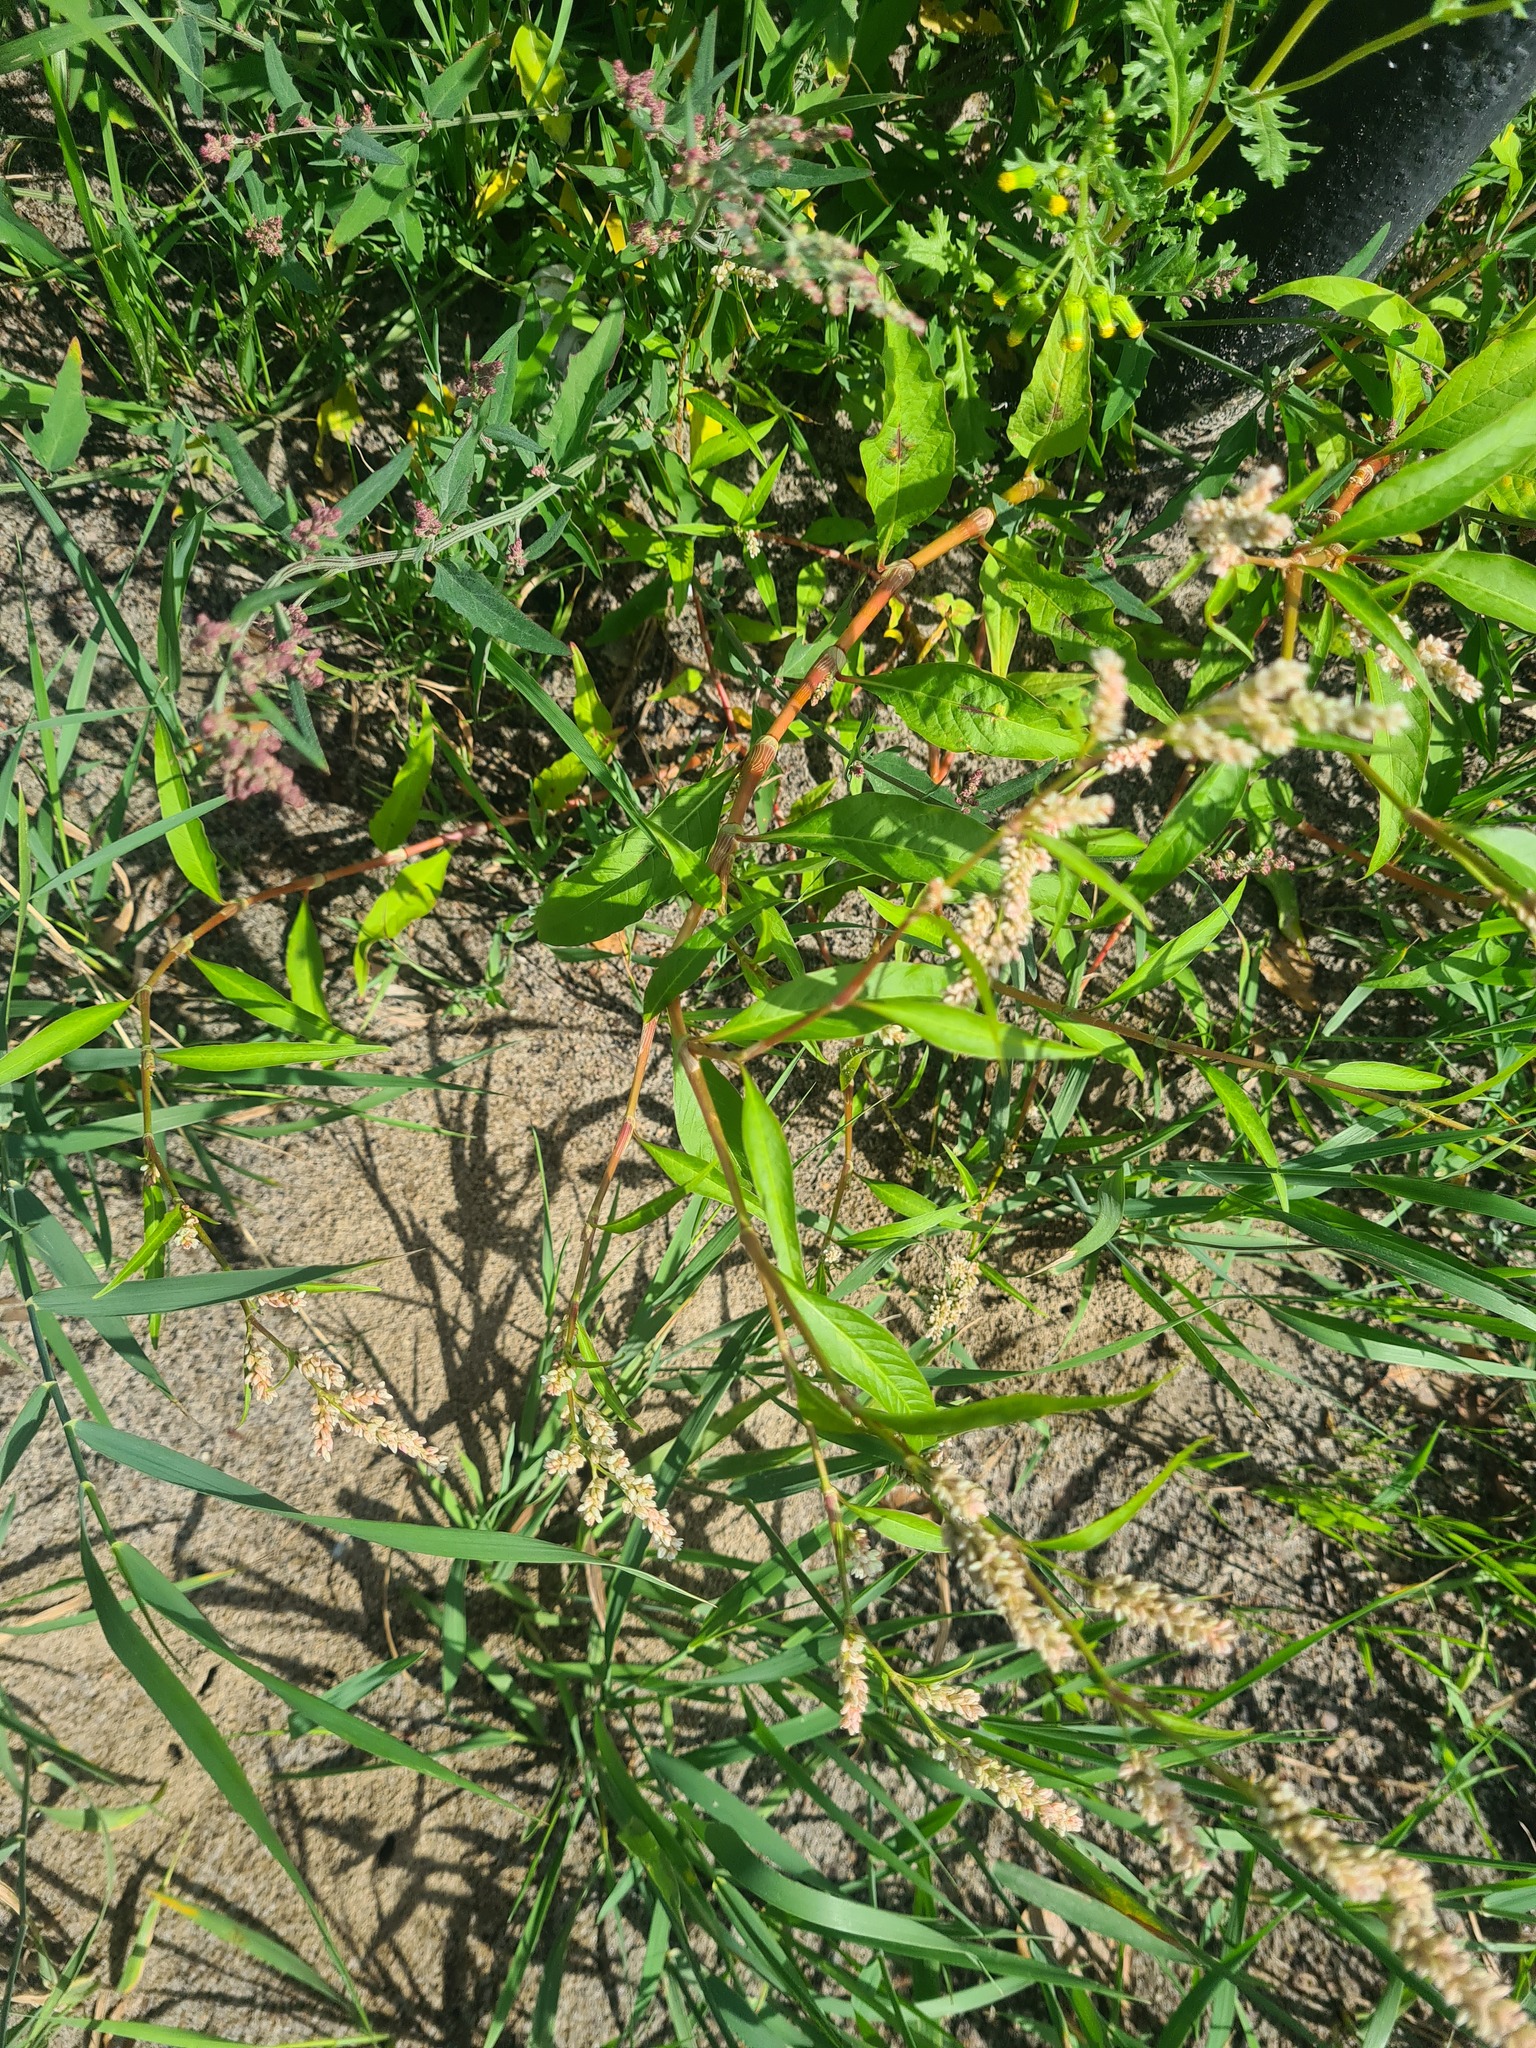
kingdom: Plantae
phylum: Tracheophyta
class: Magnoliopsida
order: Caryophyllales
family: Polygonaceae
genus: Persicaria
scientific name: Persicaria lapathifolia
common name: Curlytop knotweed
